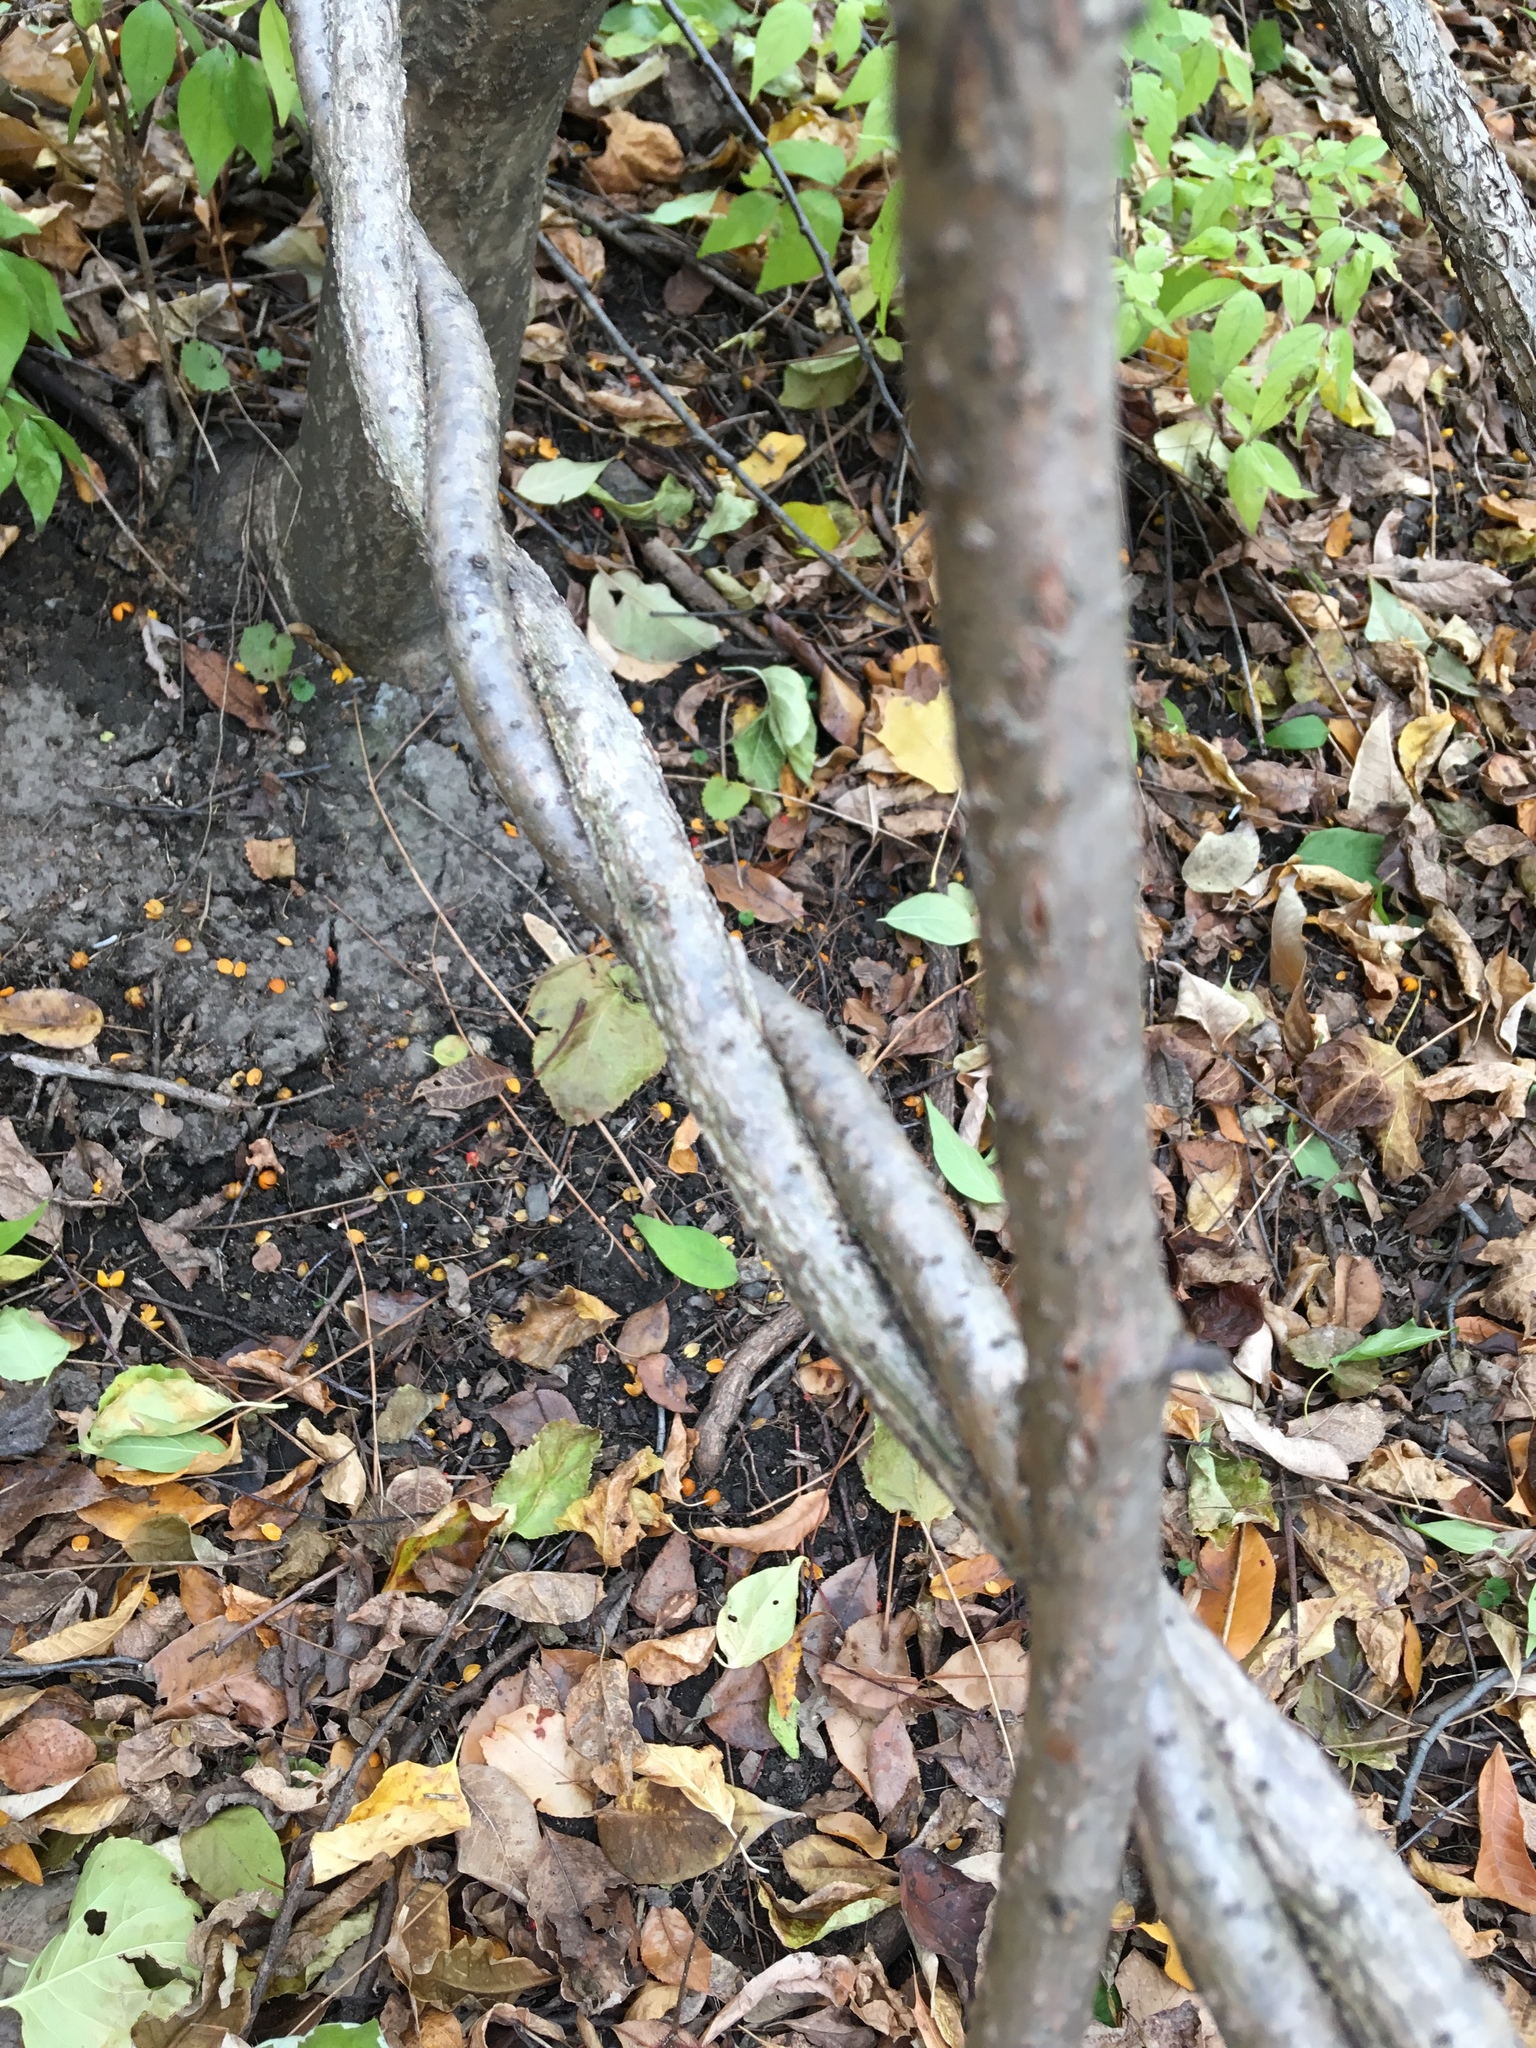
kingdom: Plantae
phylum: Tracheophyta
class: Magnoliopsida
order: Celastrales
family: Celastraceae
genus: Celastrus
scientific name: Celastrus orbiculatus
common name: Oriental bittersweet
